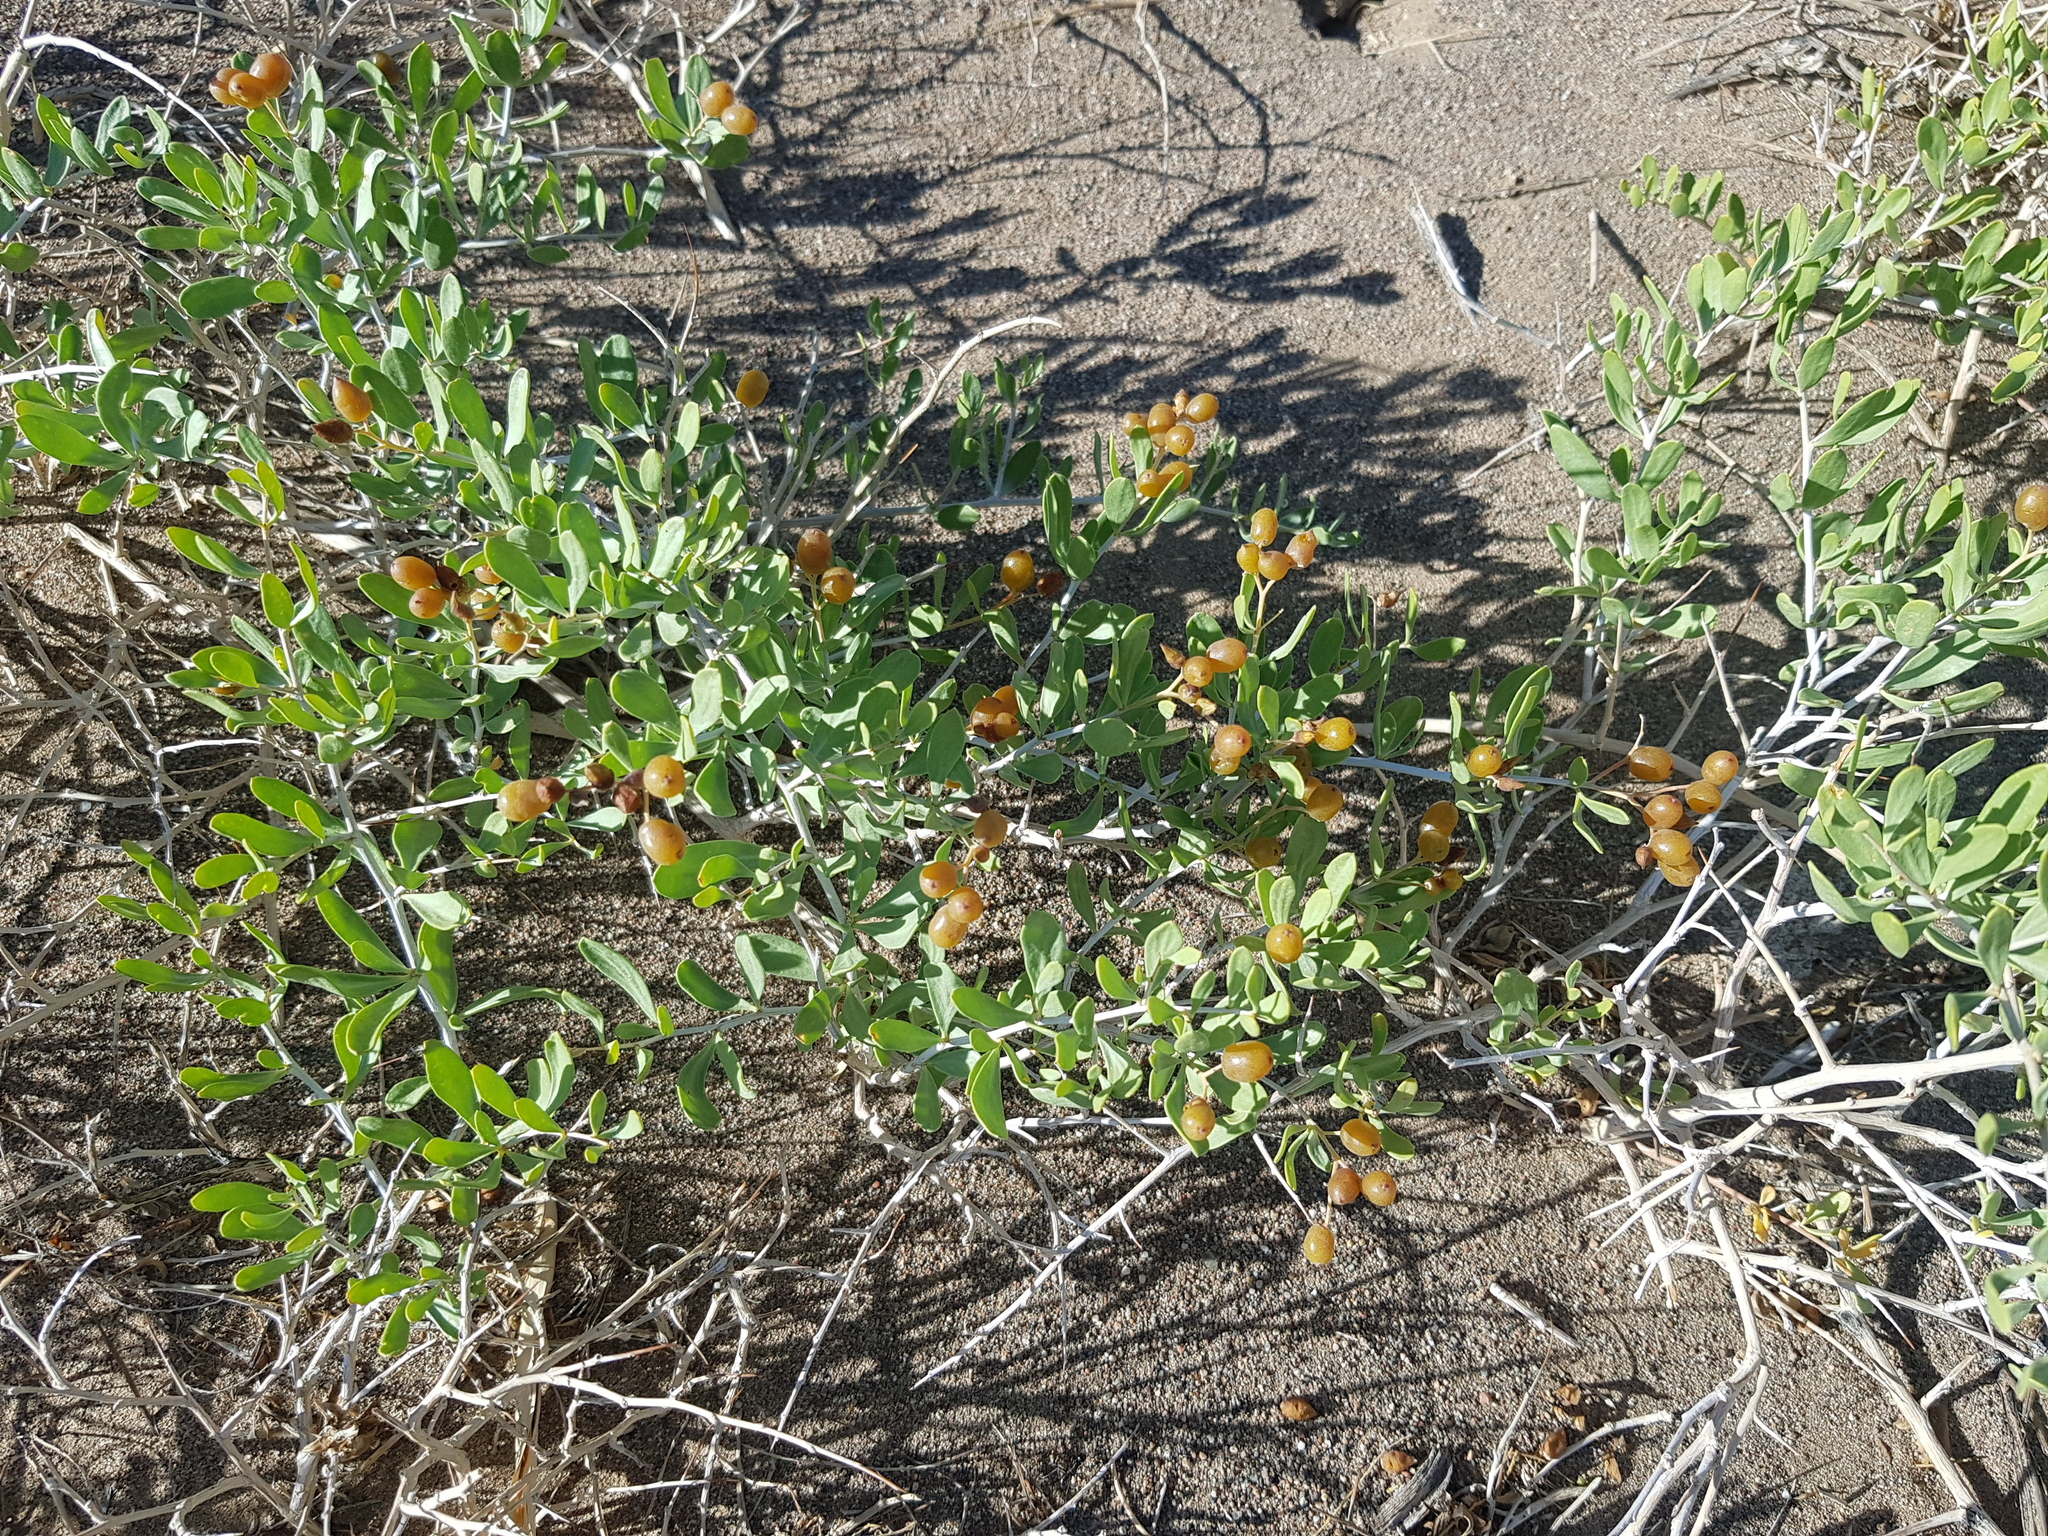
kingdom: Plantae
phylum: Tracheophyta
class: Magnoliopsida
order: Sapindales
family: Nitrariaceae
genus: Nitraria
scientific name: Nitraria sibirica
